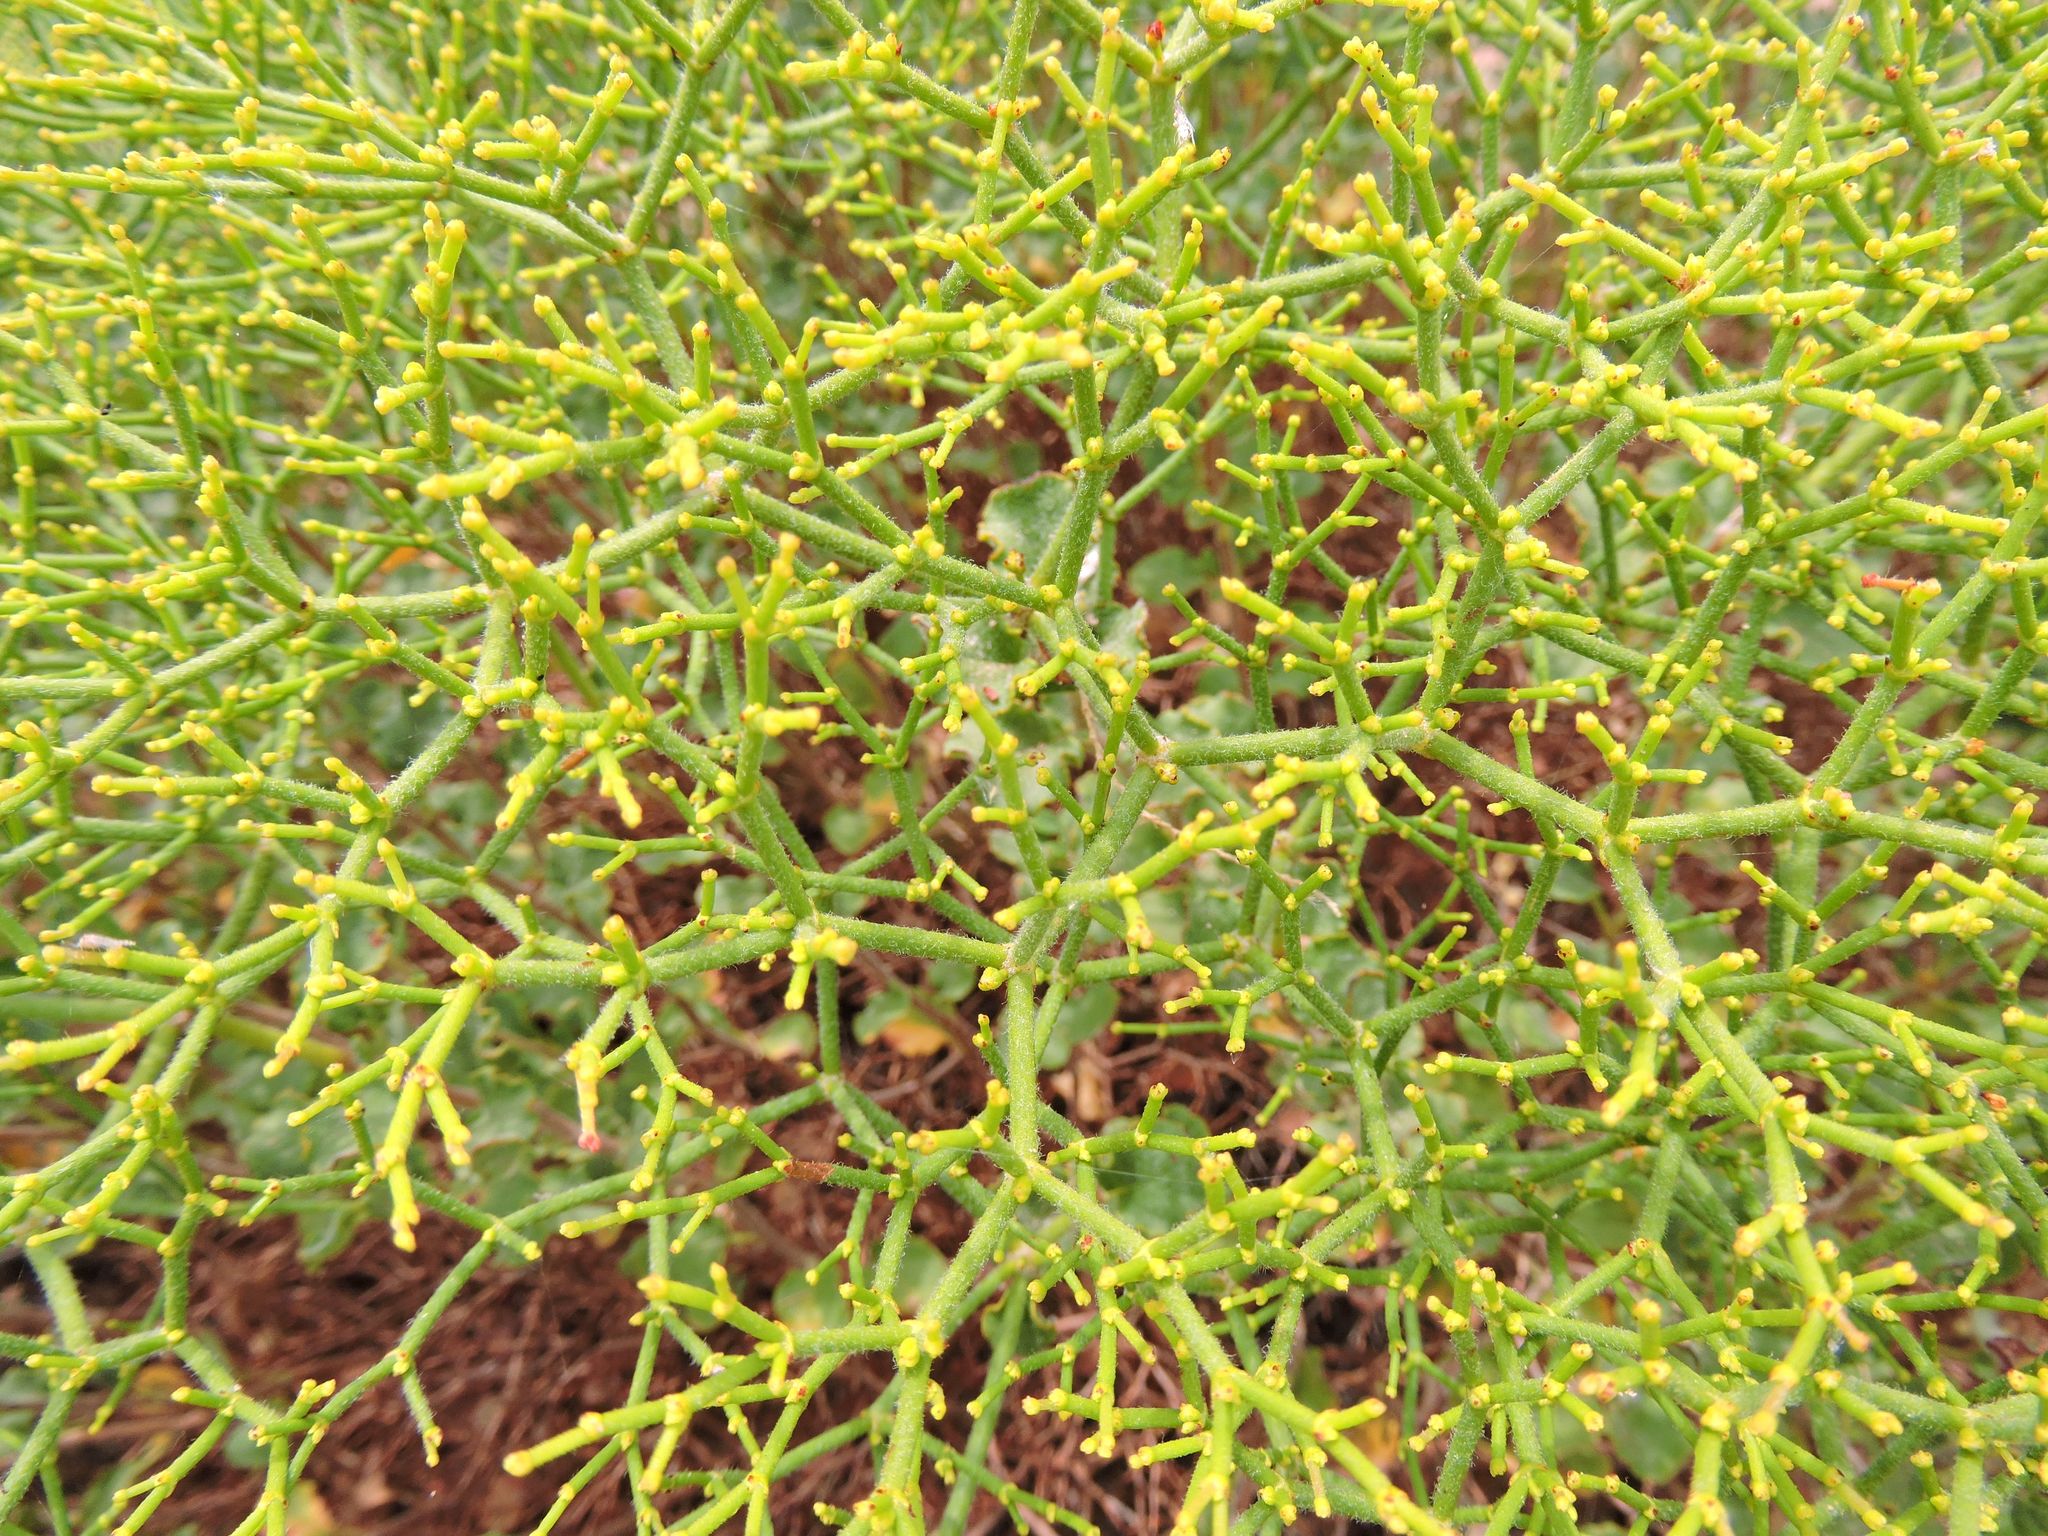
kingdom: Plantae
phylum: Tracheophyta
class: Magnoliopsida
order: Caryophyllales
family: Polygonaceae
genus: Eriogonum
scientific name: Eriogonum heermannii
